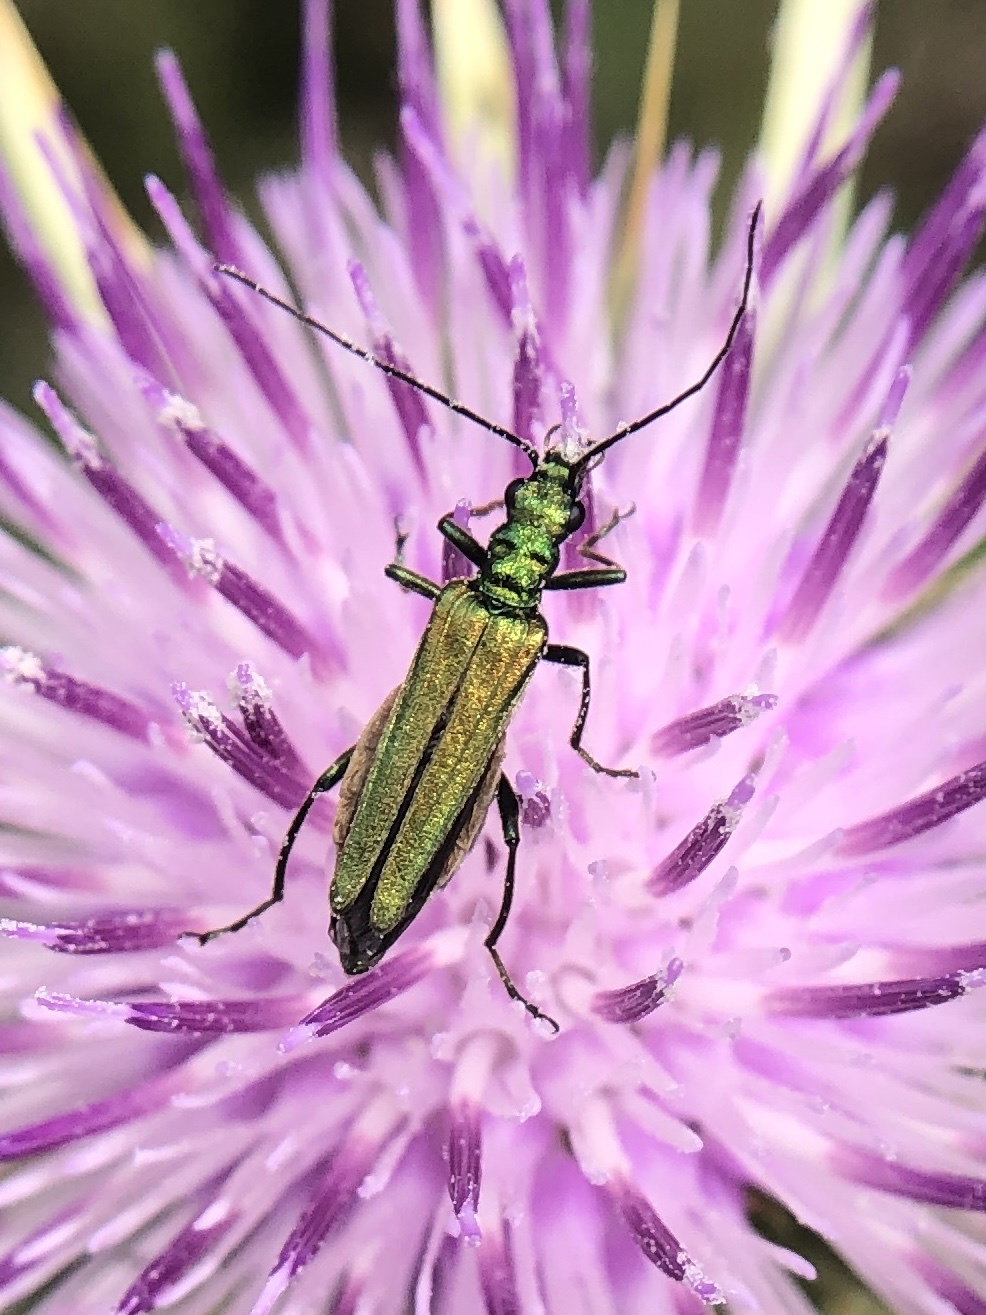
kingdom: Animalia
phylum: Arthropoda
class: Insecta
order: Coleoptera
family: Oedemeridae
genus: Oedemera
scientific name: Oedemera nobilis
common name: Swollen-thighed beetle
